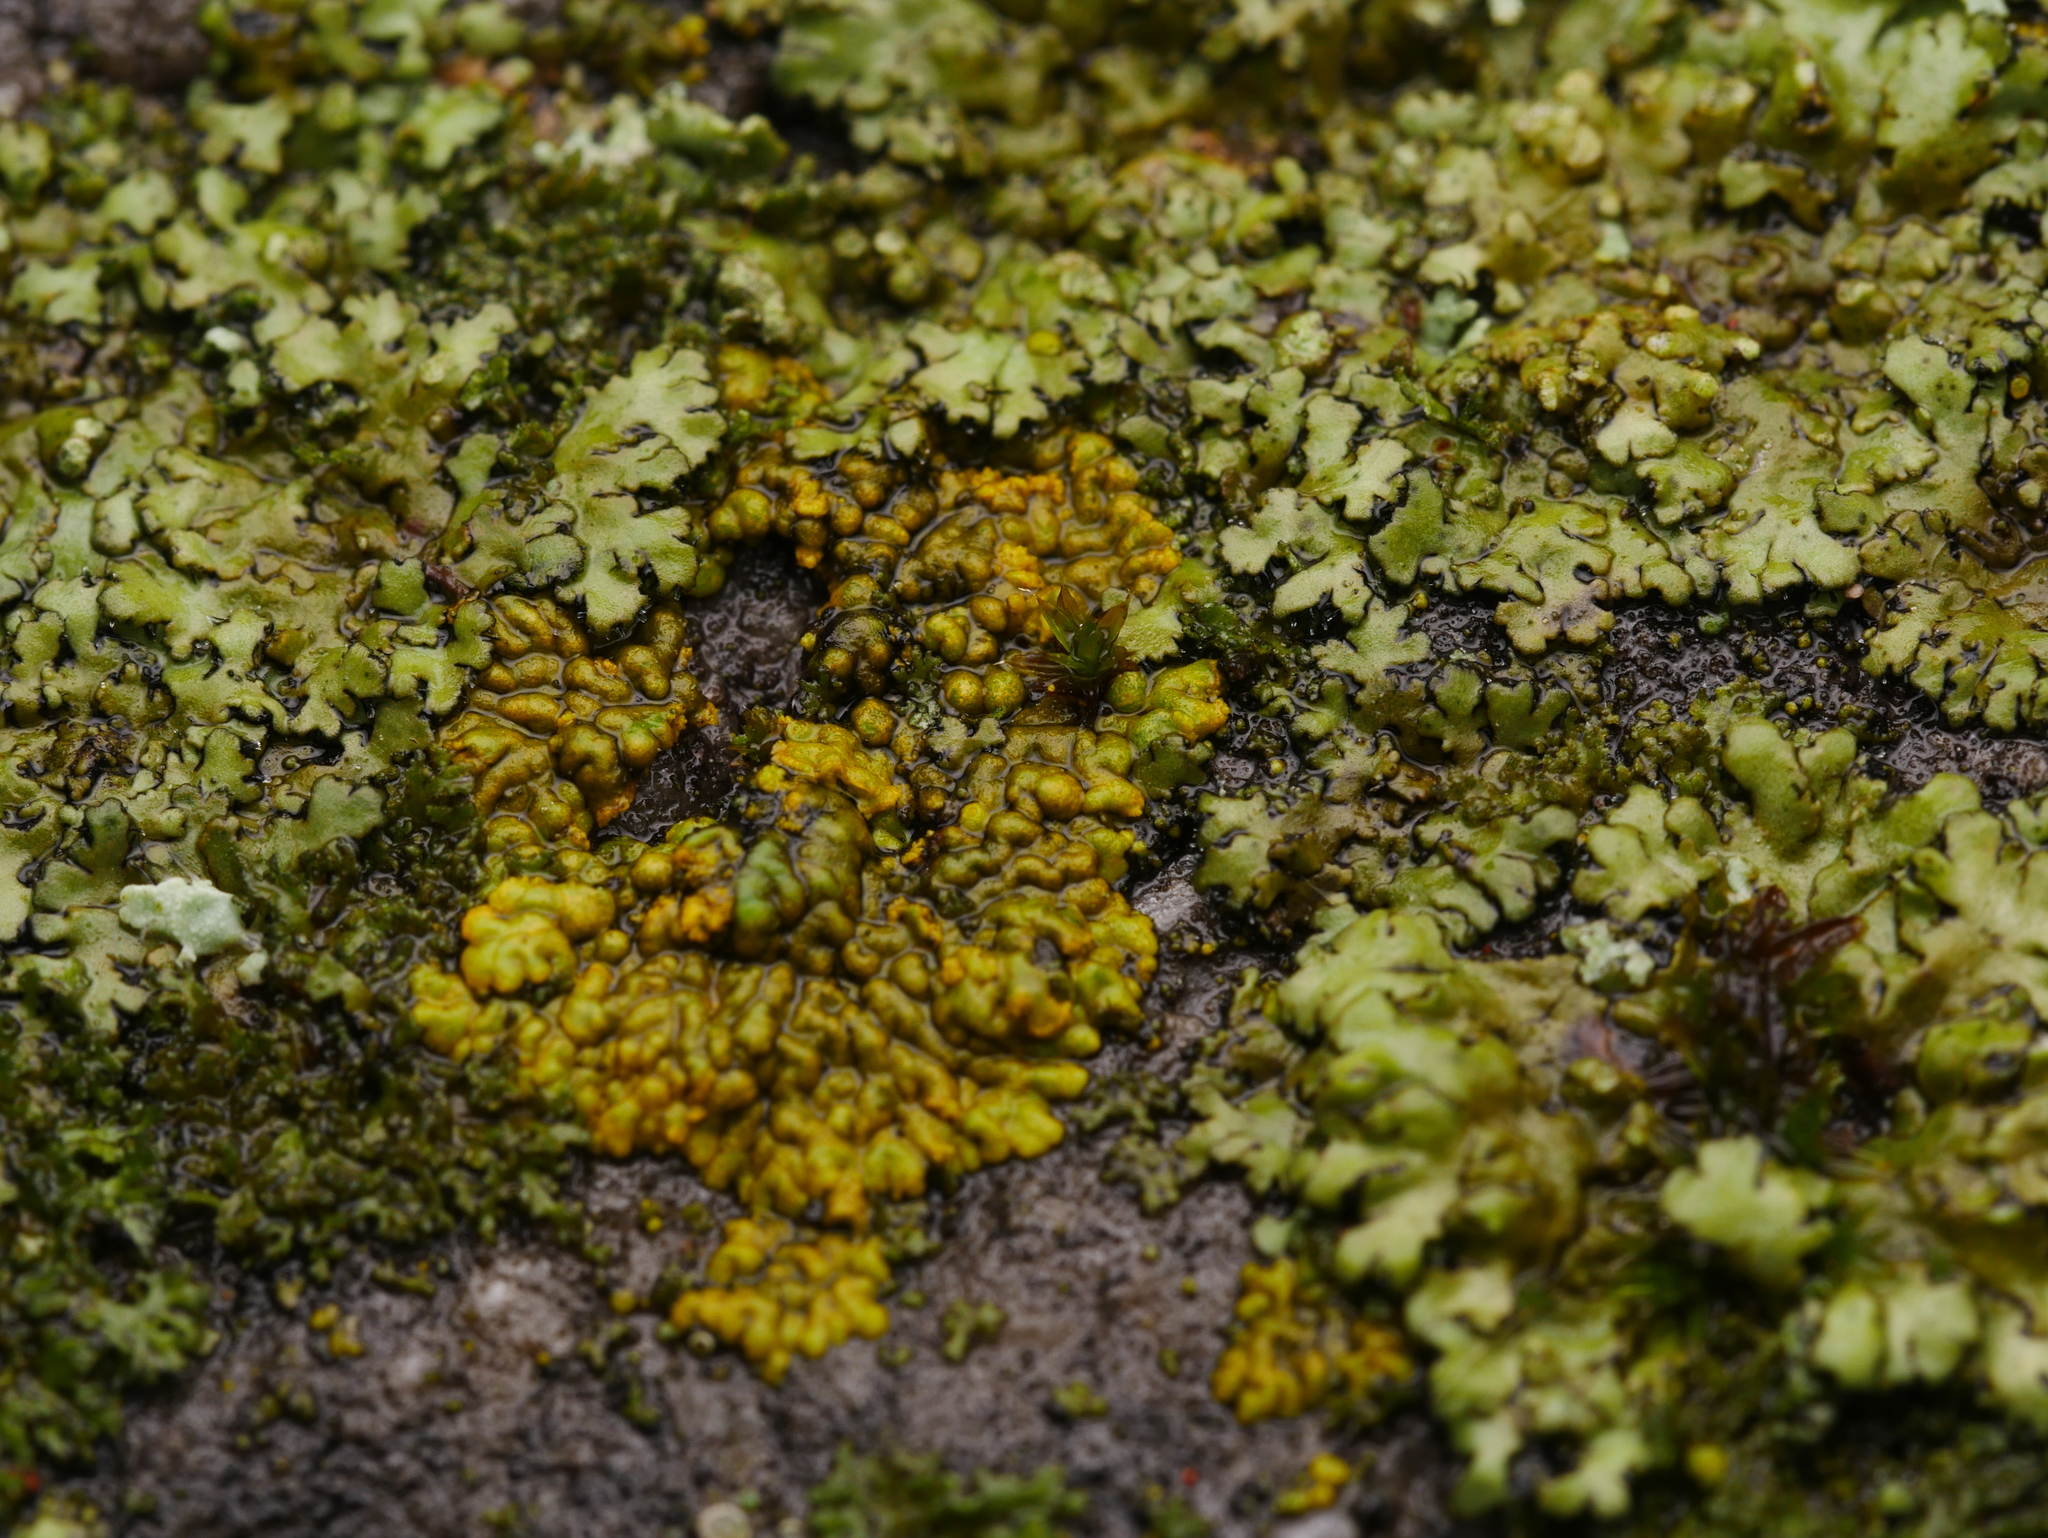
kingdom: Fungi
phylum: Ascomycota
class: Lecanoromycetes
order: Teloschistales
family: Teloschistaceae
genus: Calogaya
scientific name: Calogaya decipiens
